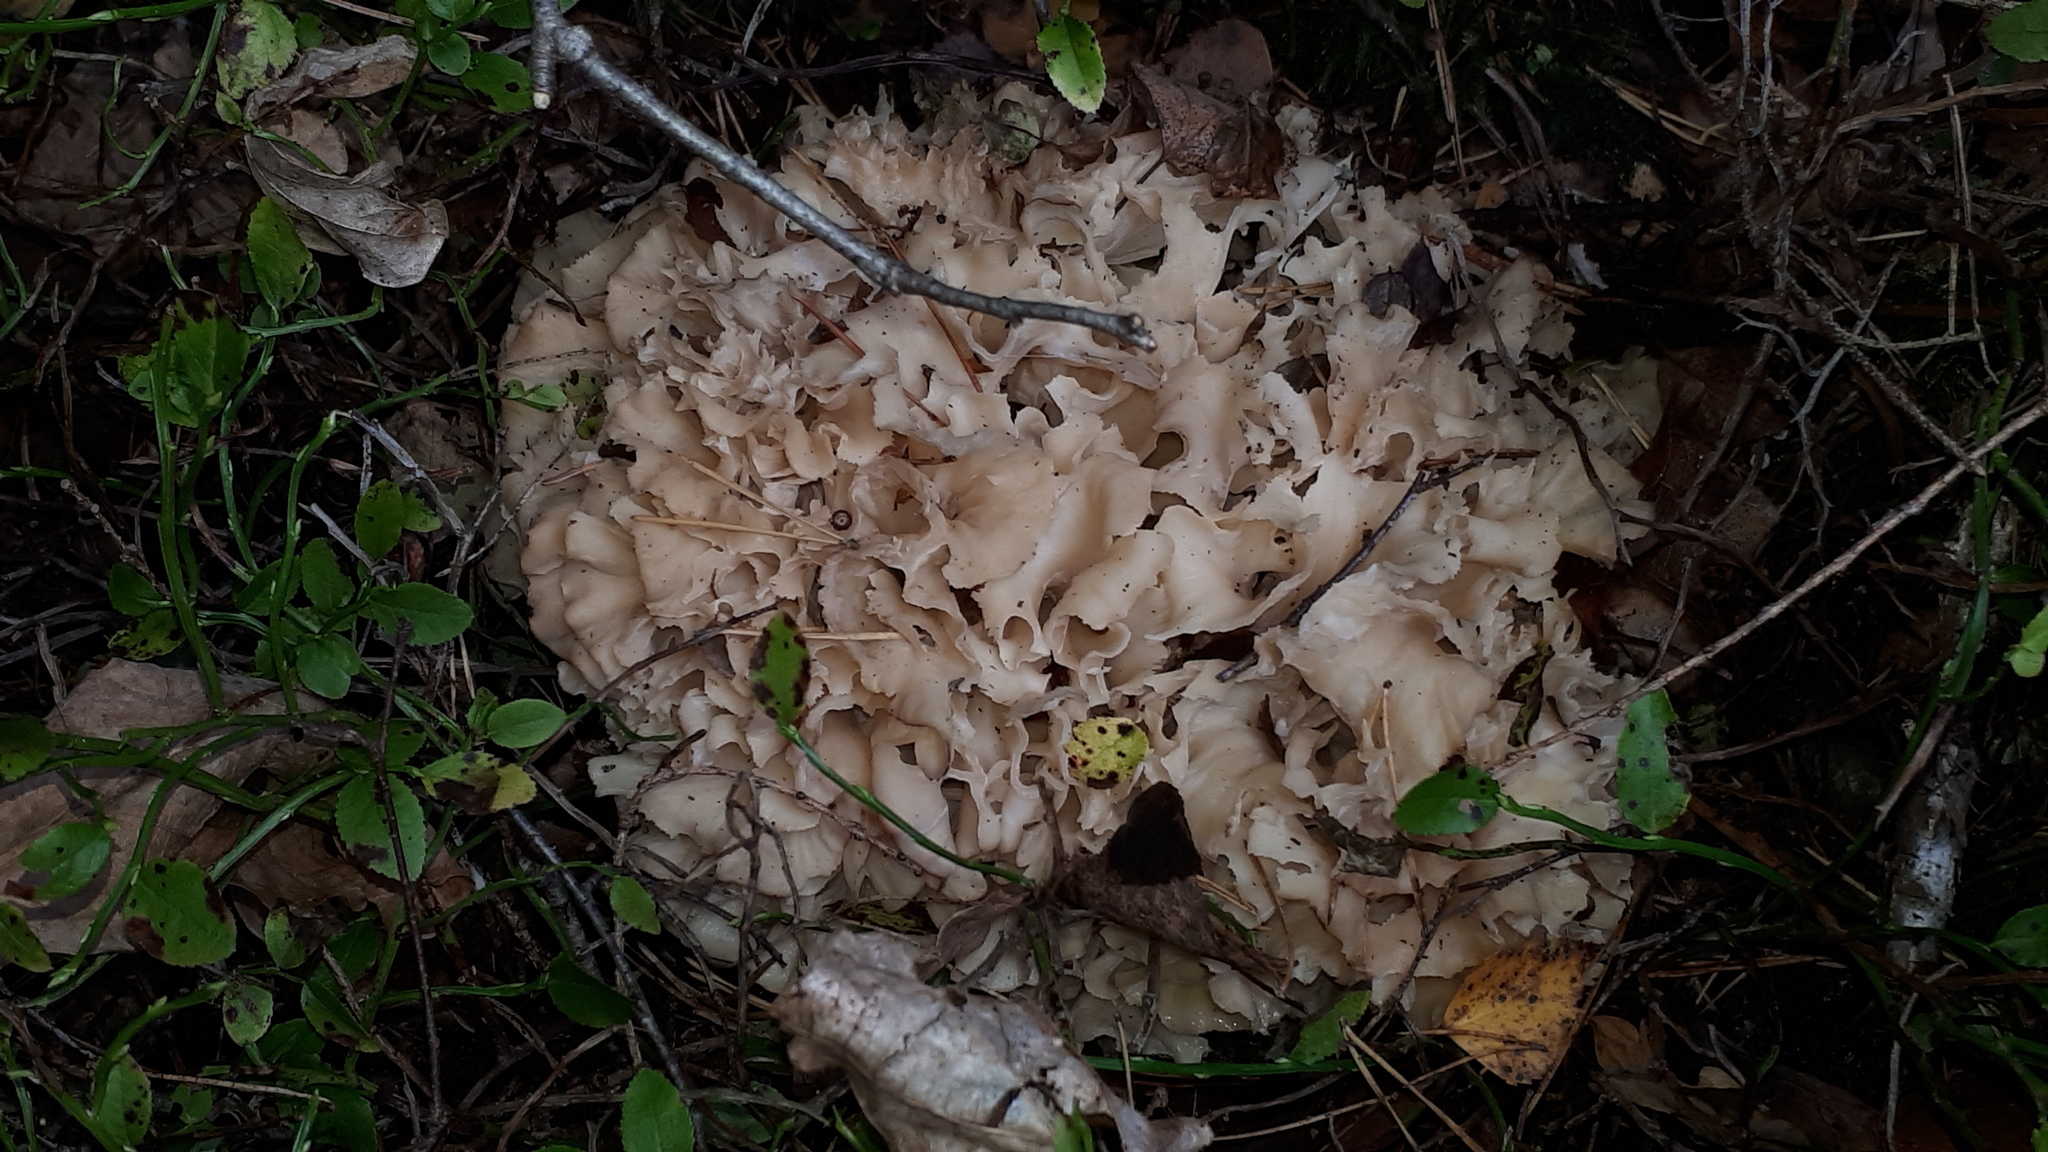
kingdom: Fungi
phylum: Basidiomycota
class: Agaricomycetes
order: Polyporales
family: Sparassidaceae
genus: Sparassis
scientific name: Sparassis crispa
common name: Brain fungus
